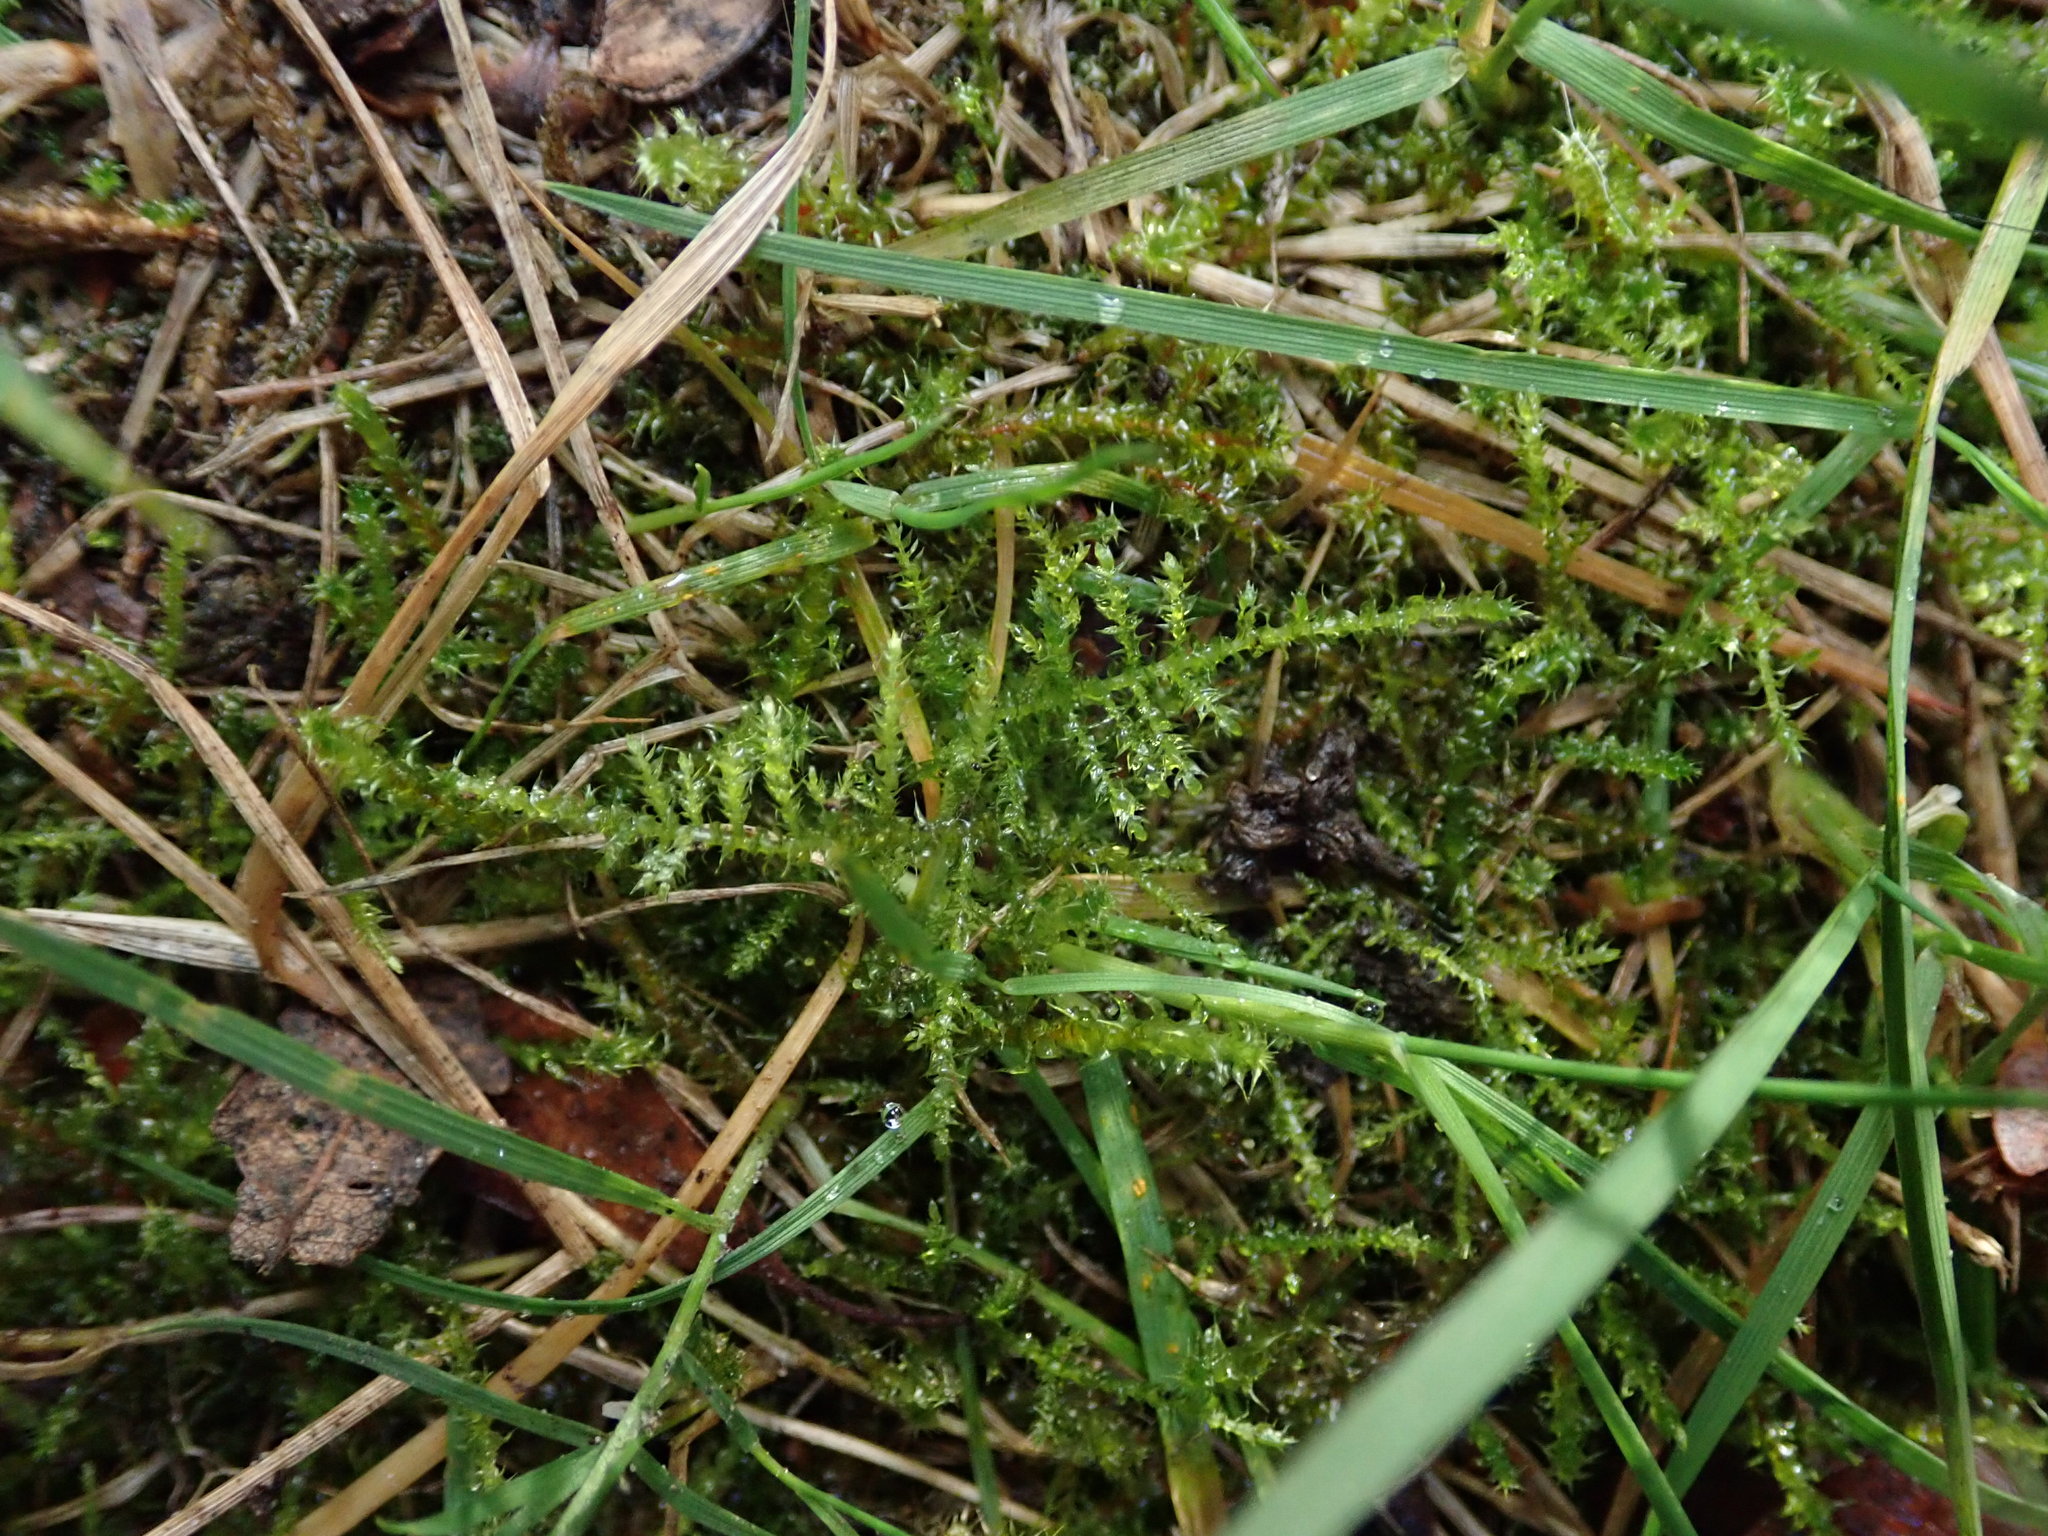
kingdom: Plantae
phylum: Bryophyta
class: Bryopsida
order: Hypnales
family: Brachytheciaceae
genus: Kindbergia
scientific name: Kindbergia praelonga
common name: Slender beaked moss
